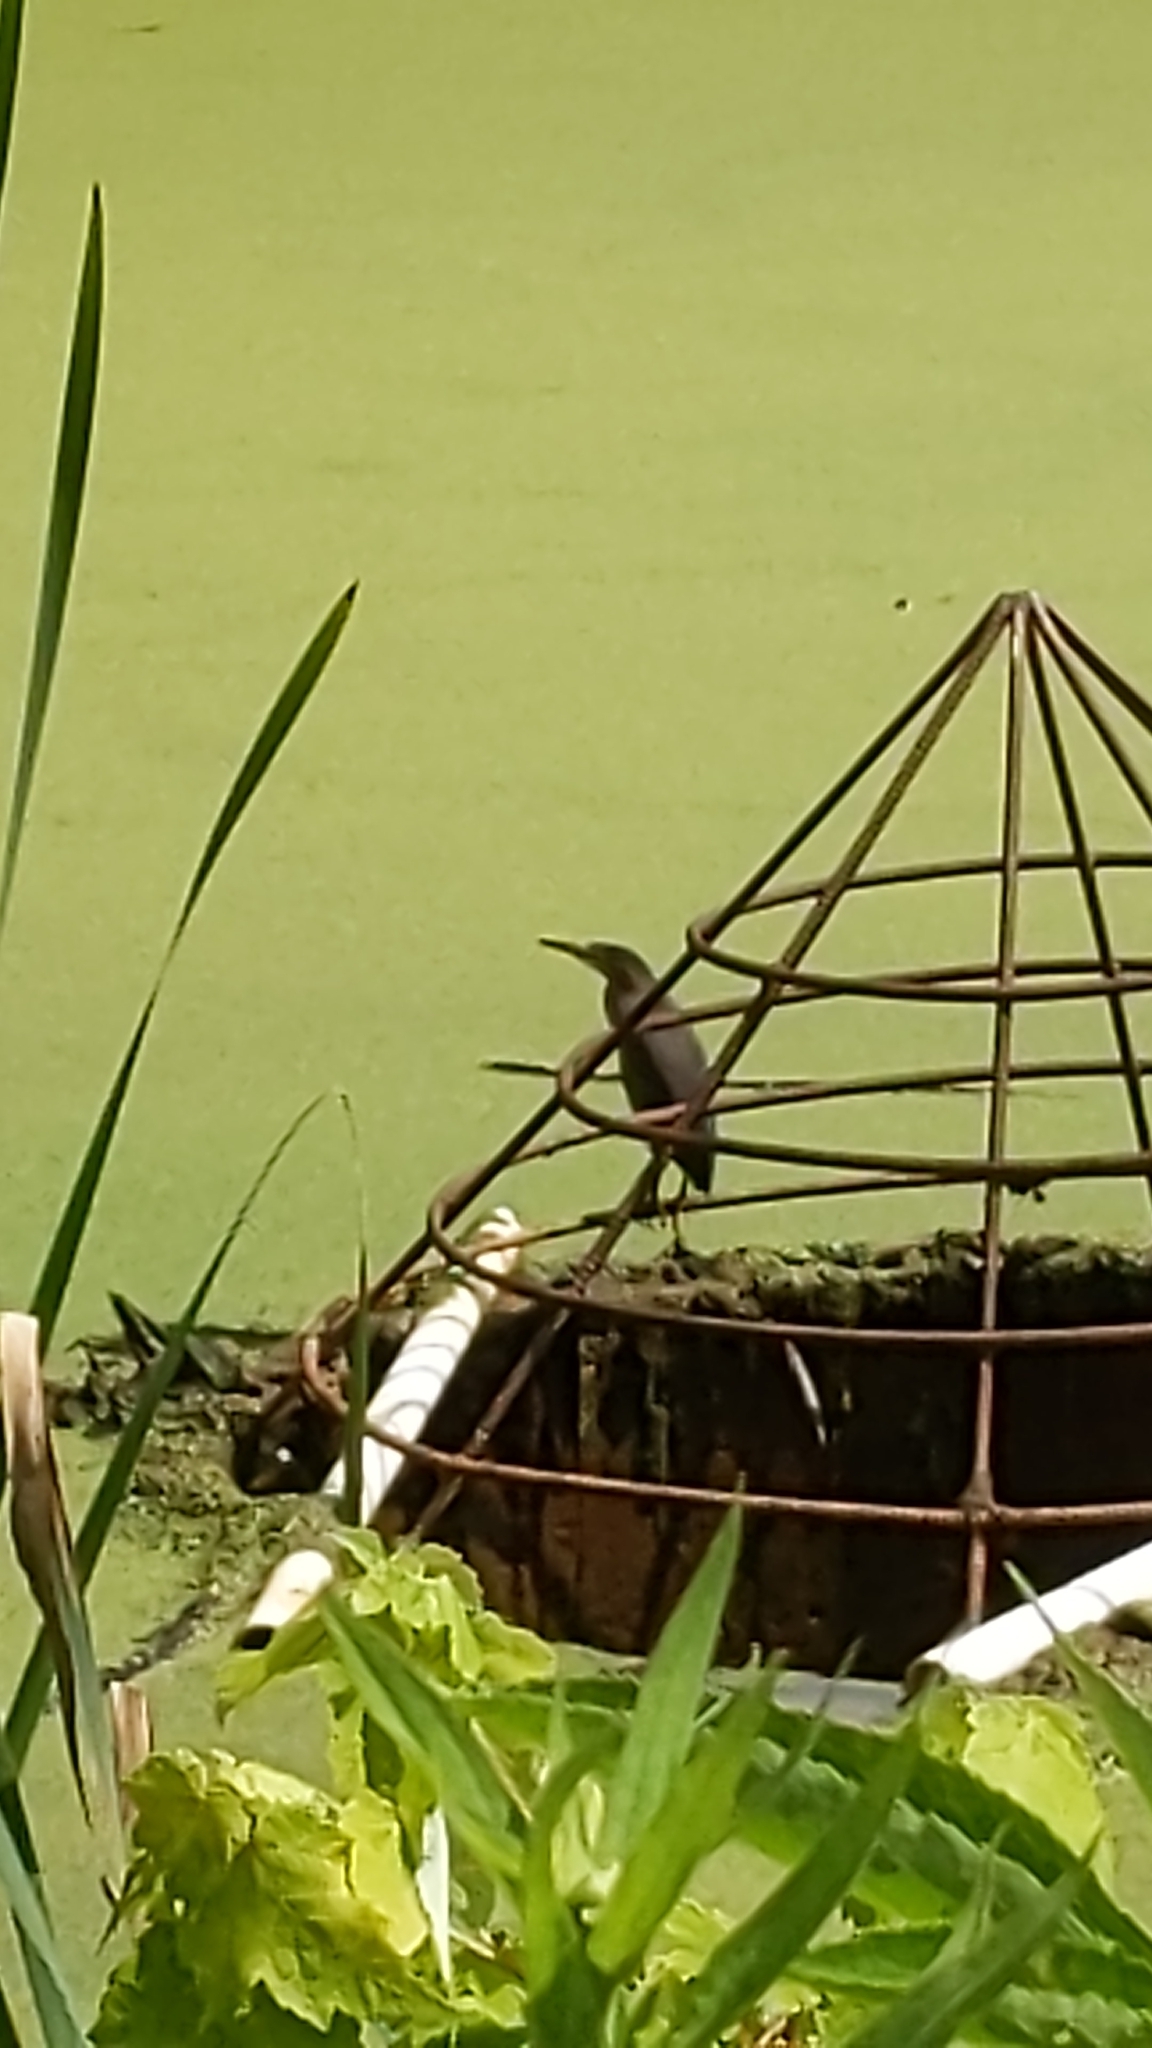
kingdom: Animalia
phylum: Chordata
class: Aves
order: Pelecaniformes
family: Ardeidae
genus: Butorides
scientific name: Butorides virescens
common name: Green heron
